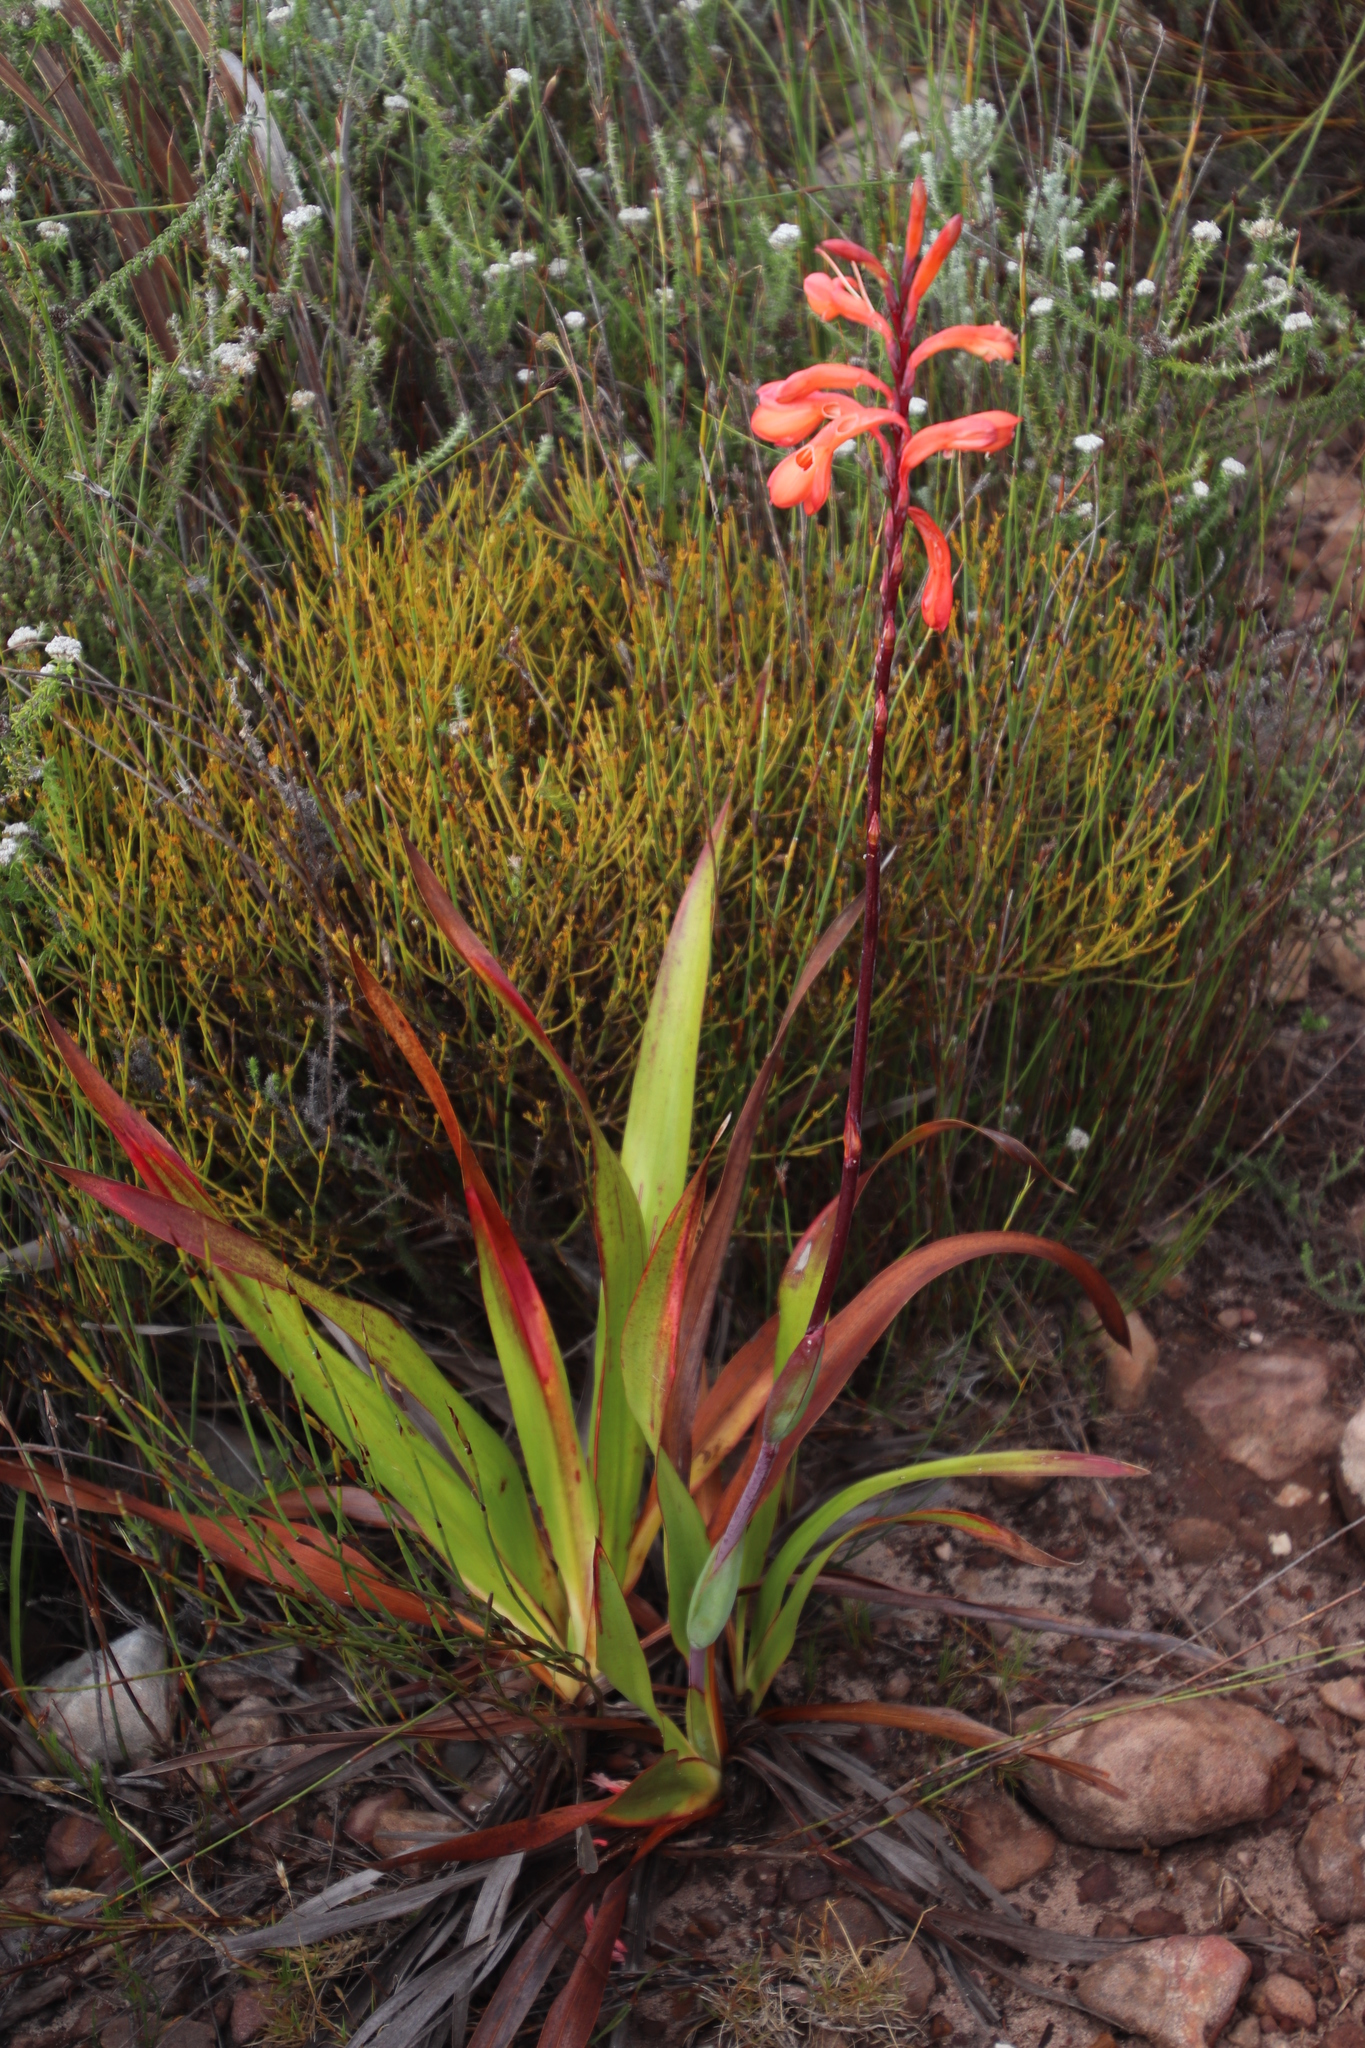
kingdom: Plantae
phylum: Tracheophyta
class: Liliopsida
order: Asparagales
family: Iridaceae
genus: Watsonia
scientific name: Watsonia tabularis
